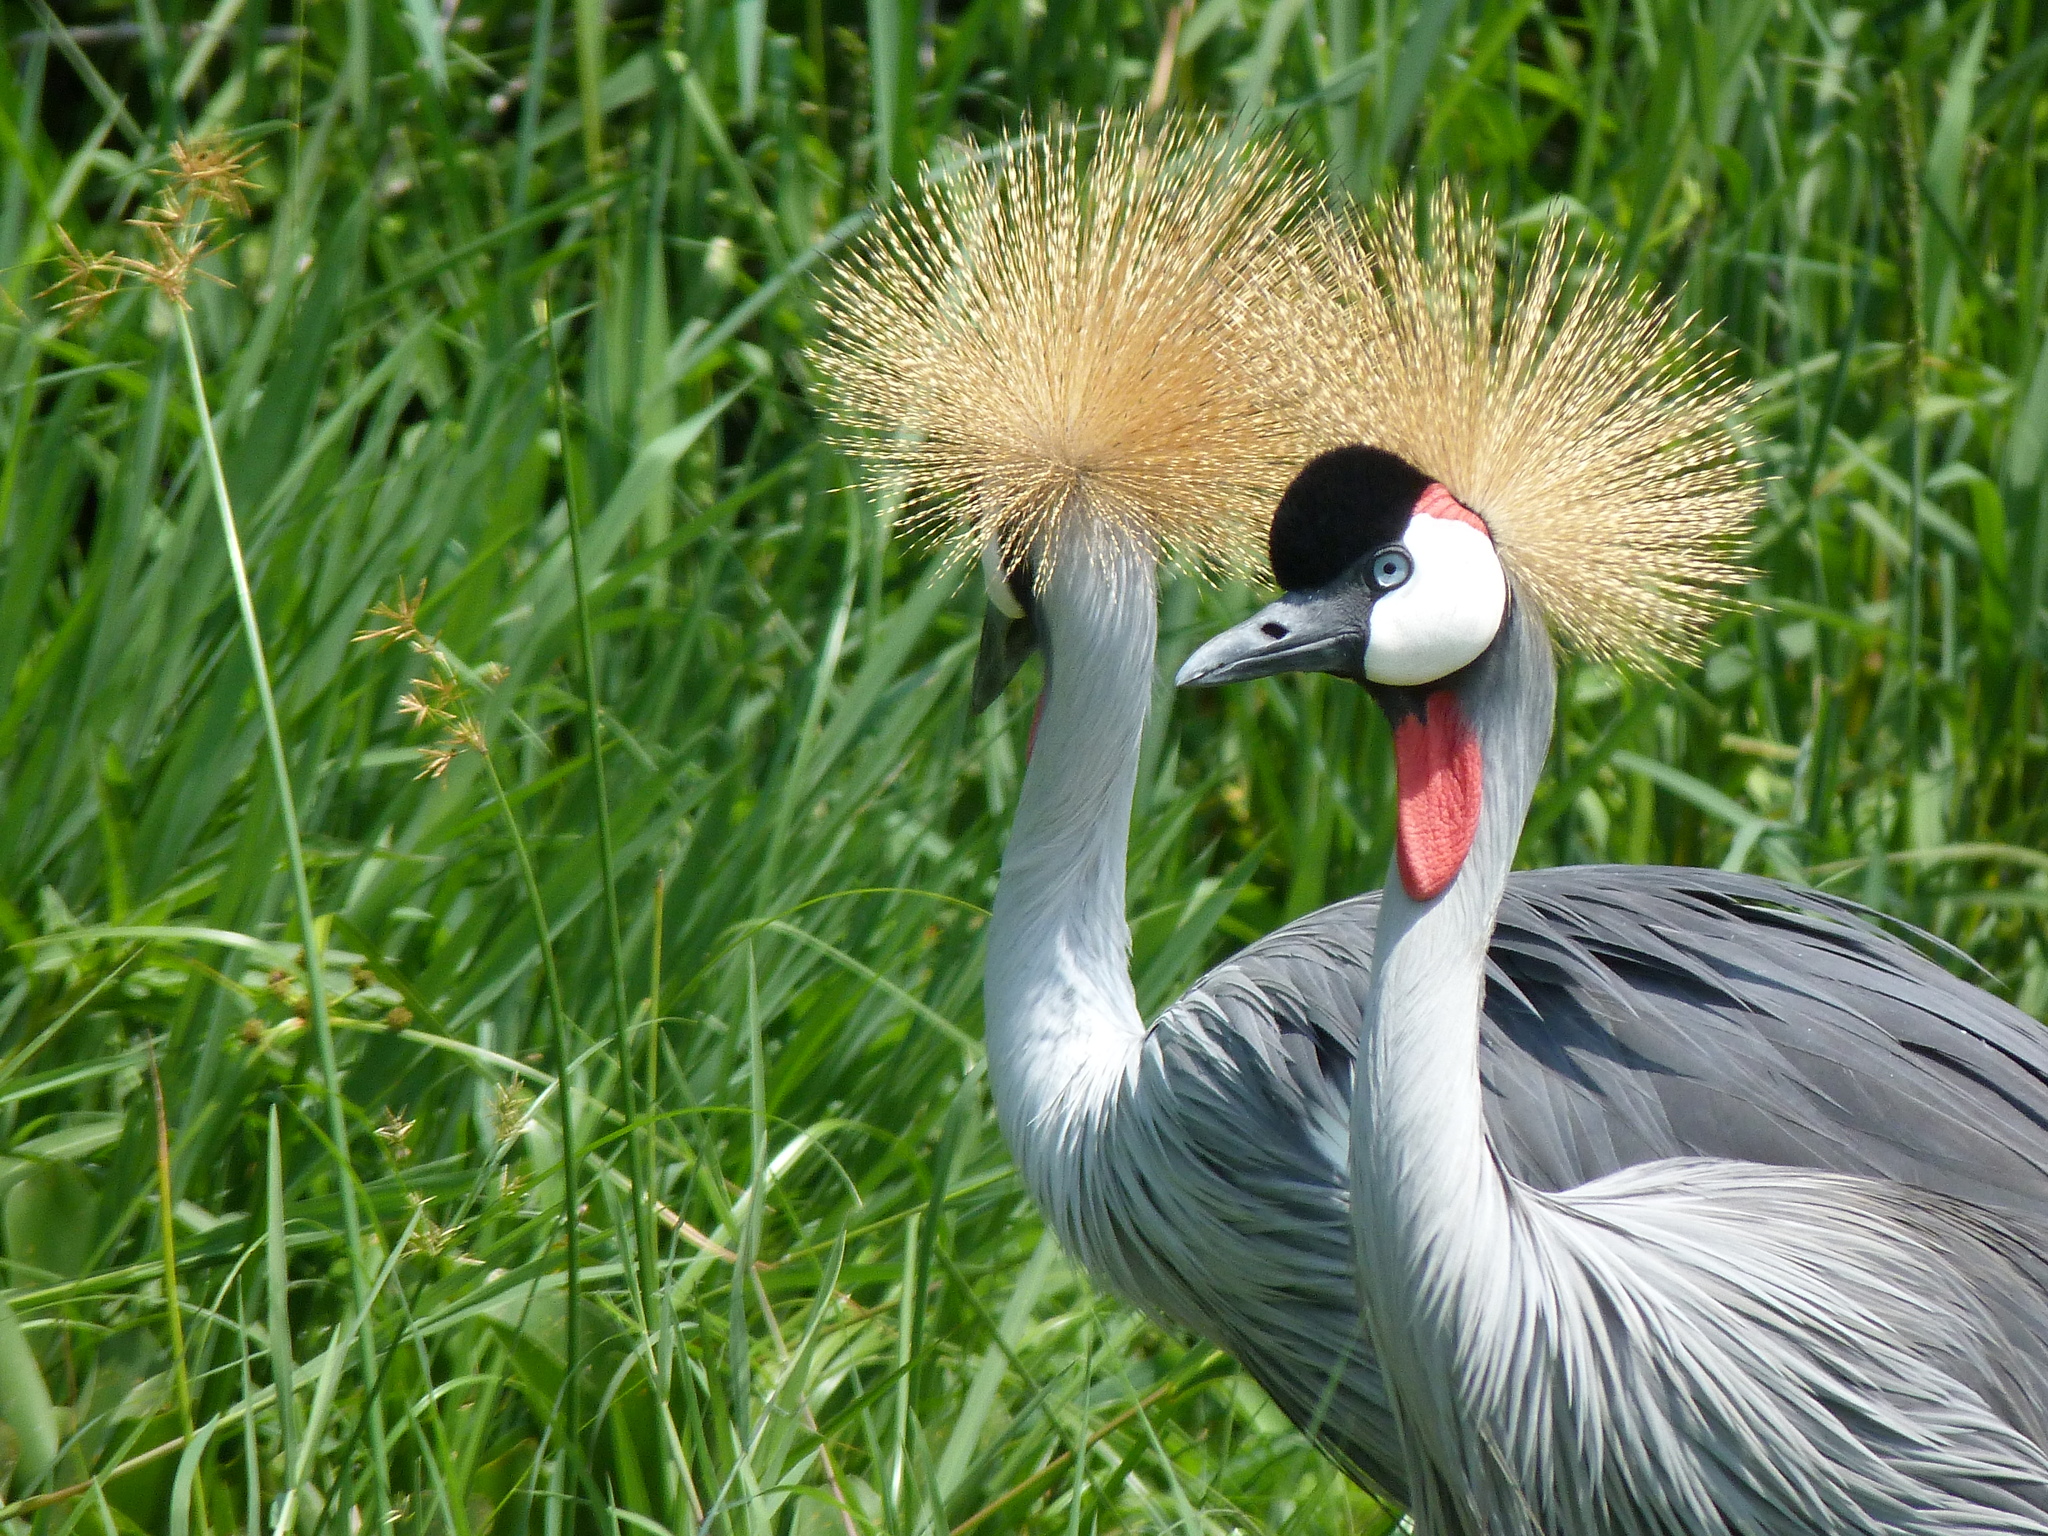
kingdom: Animalia
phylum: Chordata
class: Aves
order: Gruiformes
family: Gruidae
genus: Balearica
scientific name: Balearica regulorum
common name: Grey crowned crane
